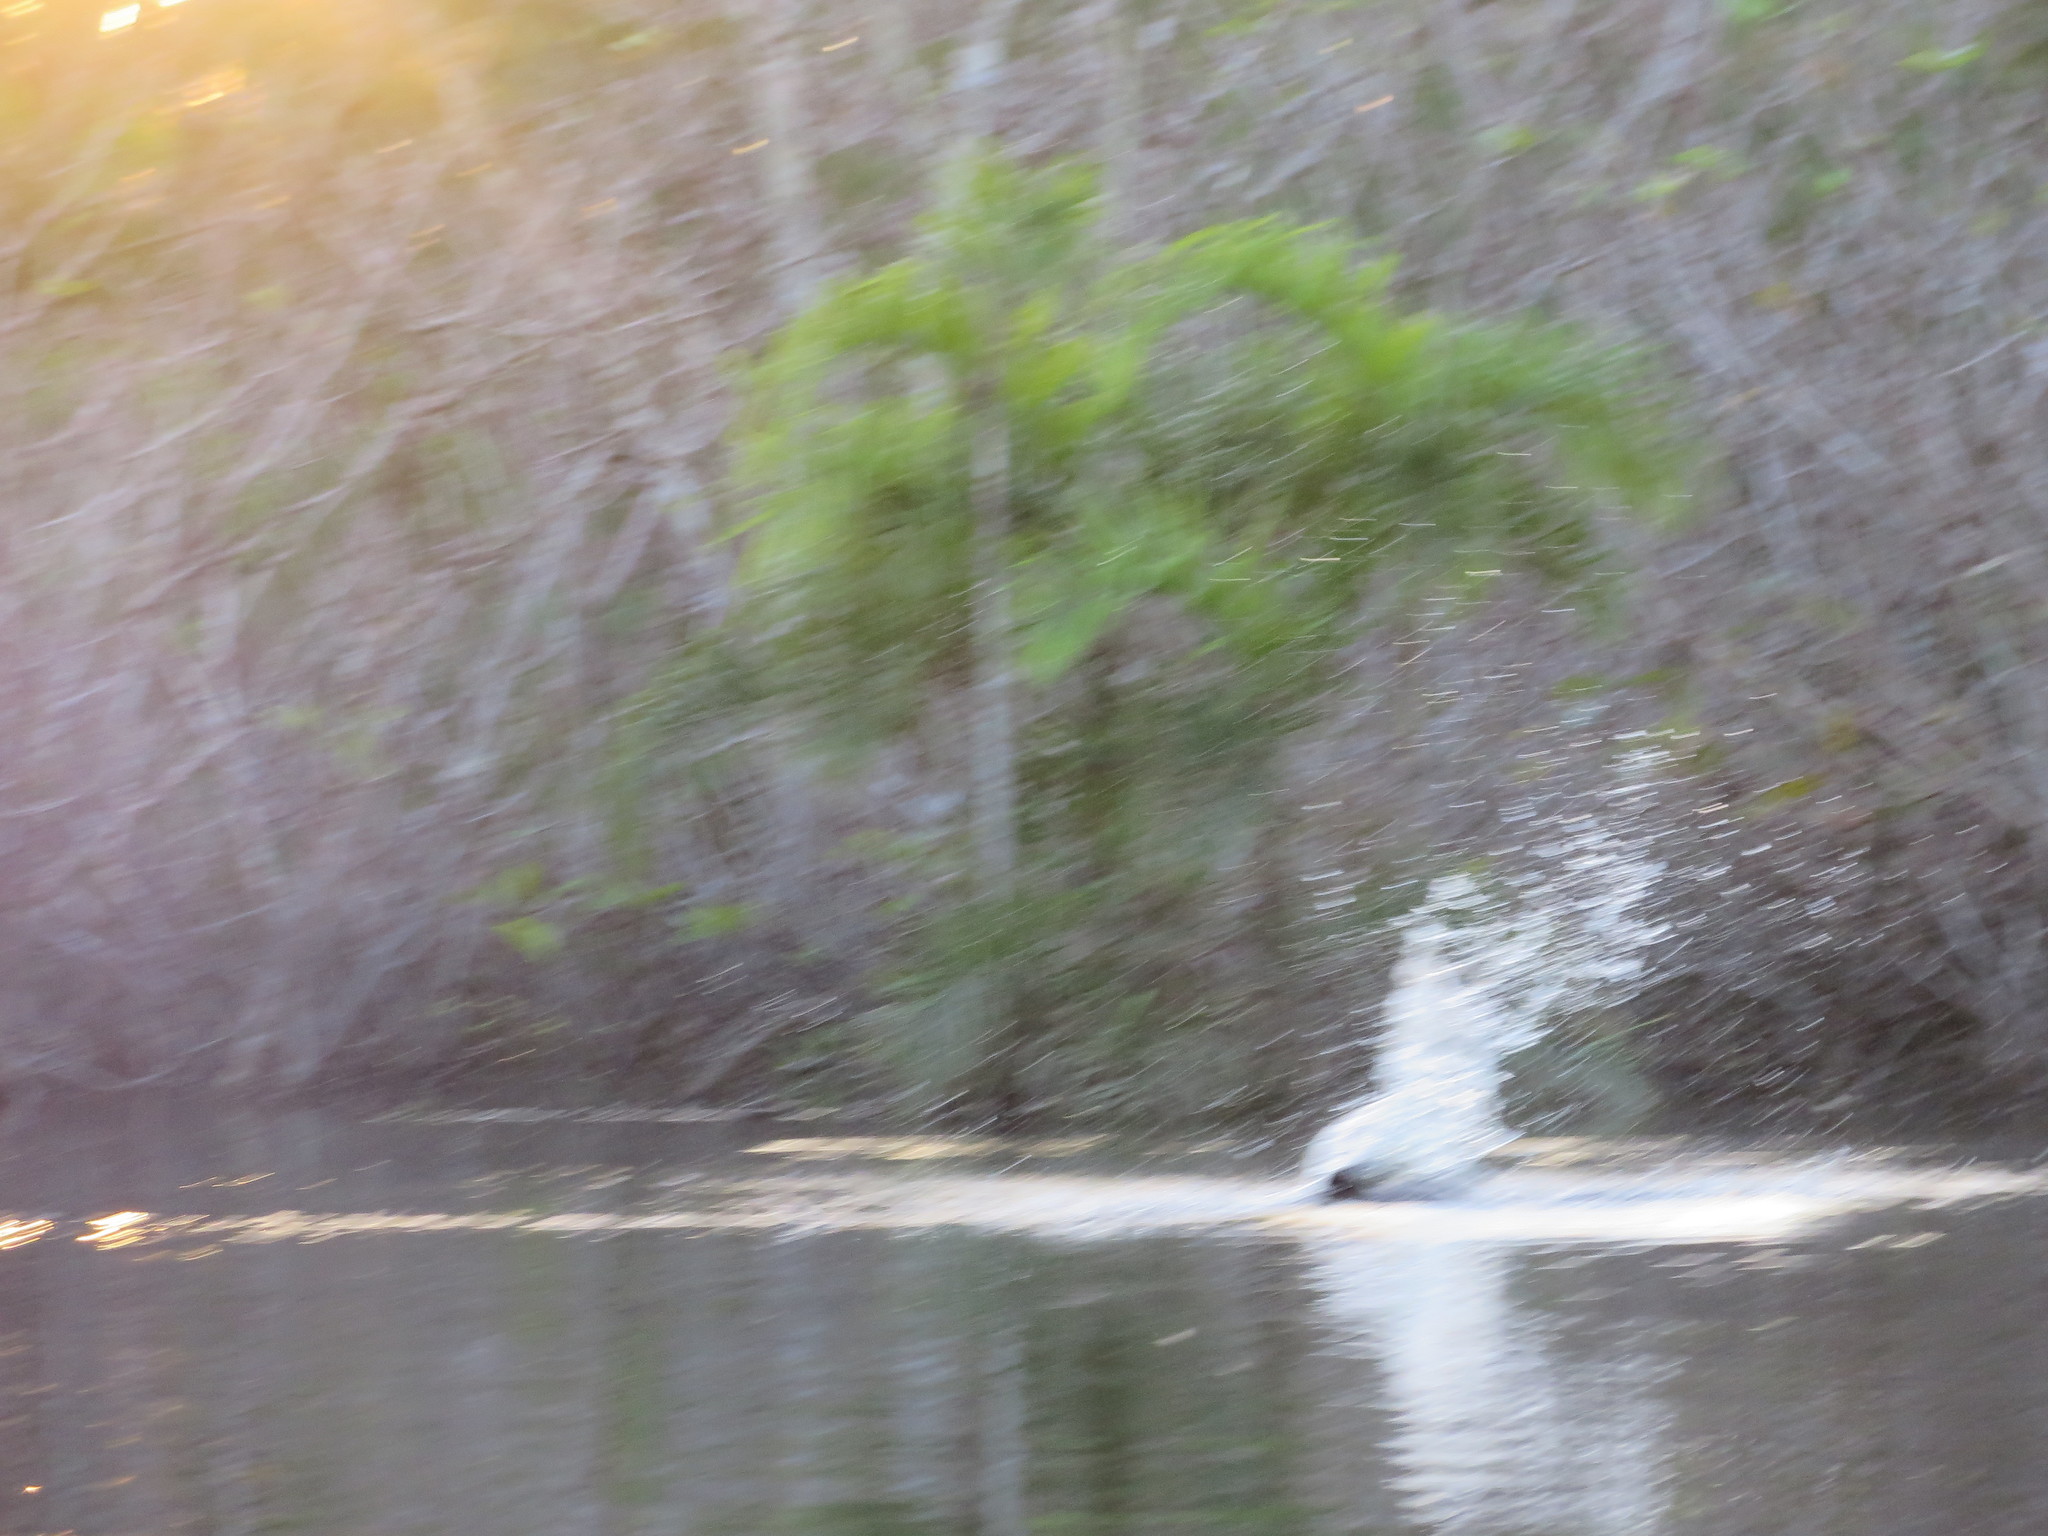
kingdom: Animalia
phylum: Chordata
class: Mammalia
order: Cetacea
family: Iniidae
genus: Inia
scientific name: Inia geoffrensis
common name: Amazon river dolphin
